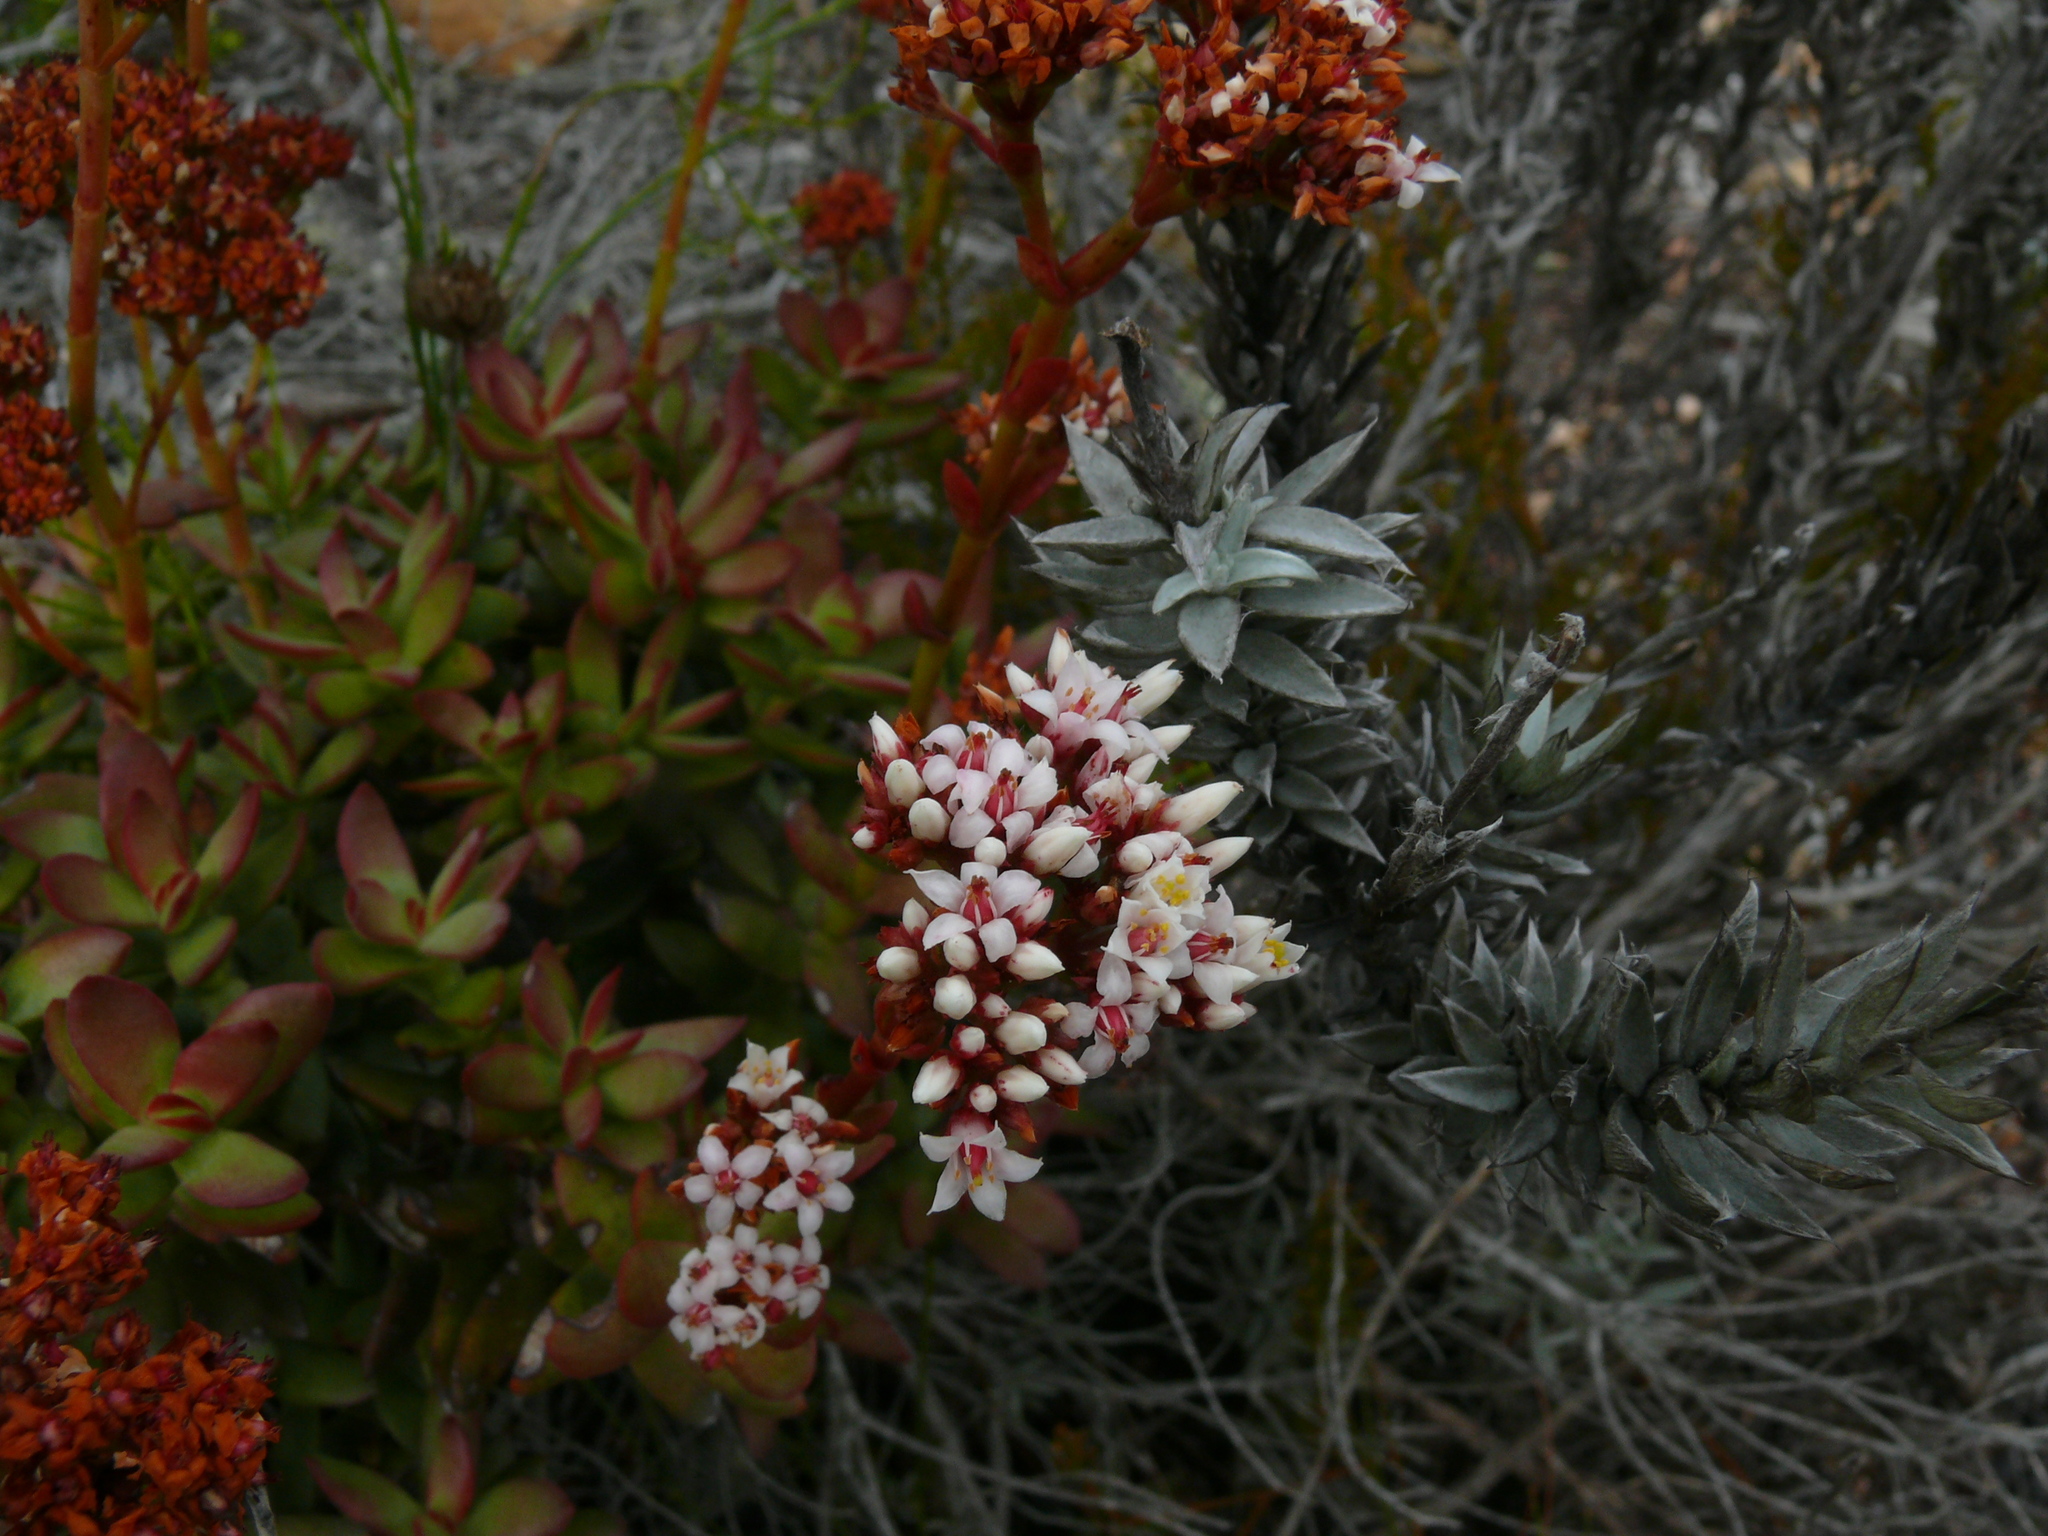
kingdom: Plantae
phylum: Tracheophyta
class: Magnoliopsida
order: Saxifragales
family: Crassulaceae
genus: Crassula
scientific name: Crassula rubricaulis
